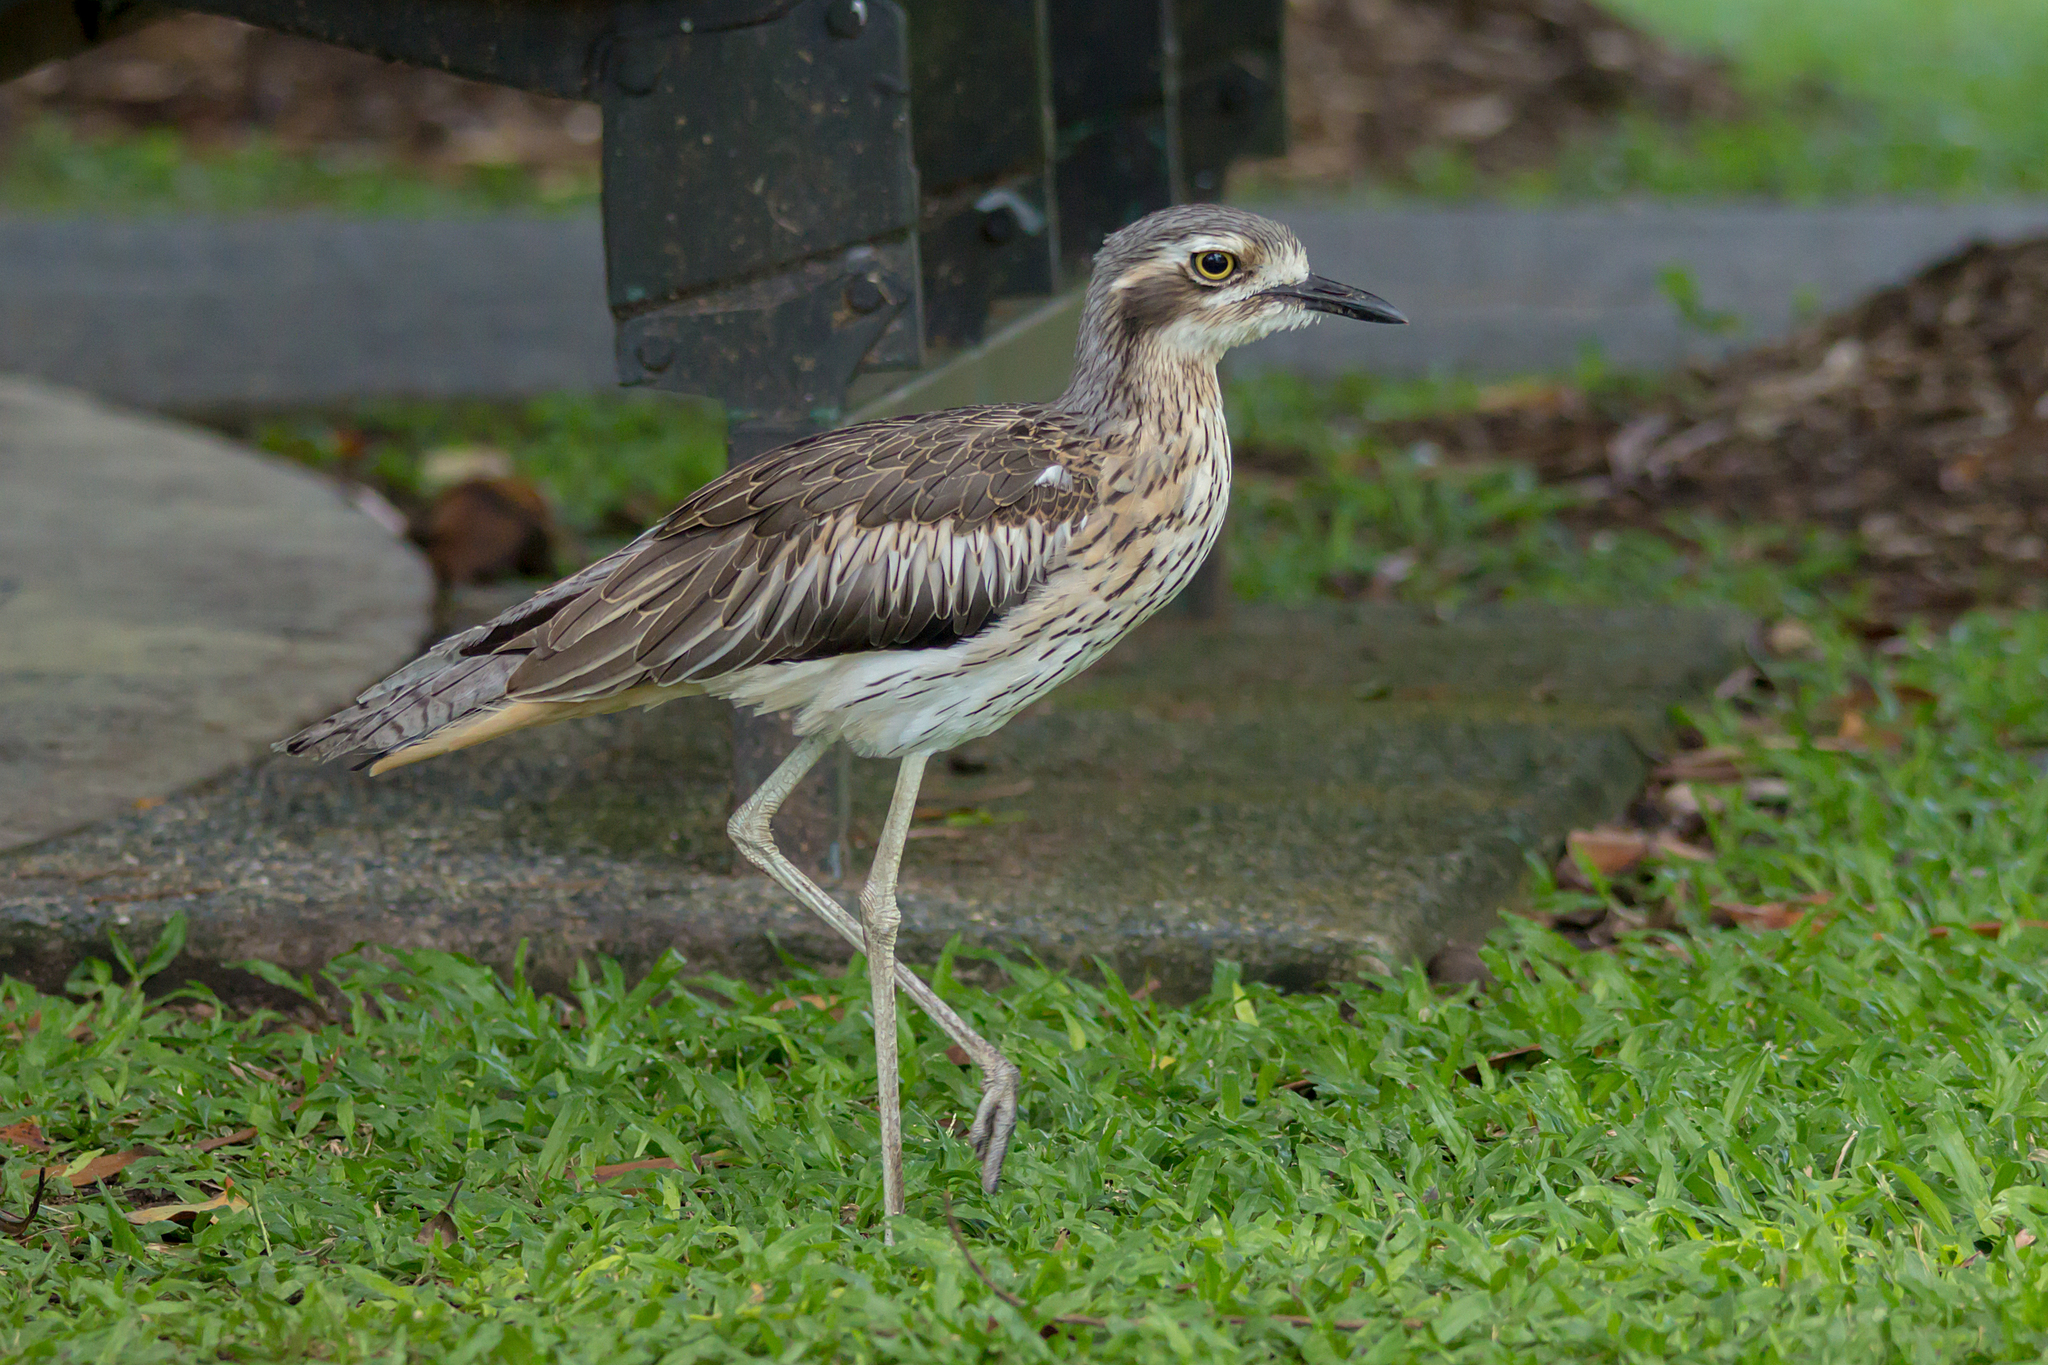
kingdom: Animalia
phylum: Chordata
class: Aves
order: Charadriiformes
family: Burhinidae
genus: Burhinus
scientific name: Burhinus grallarius
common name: Bush stone-curlew
